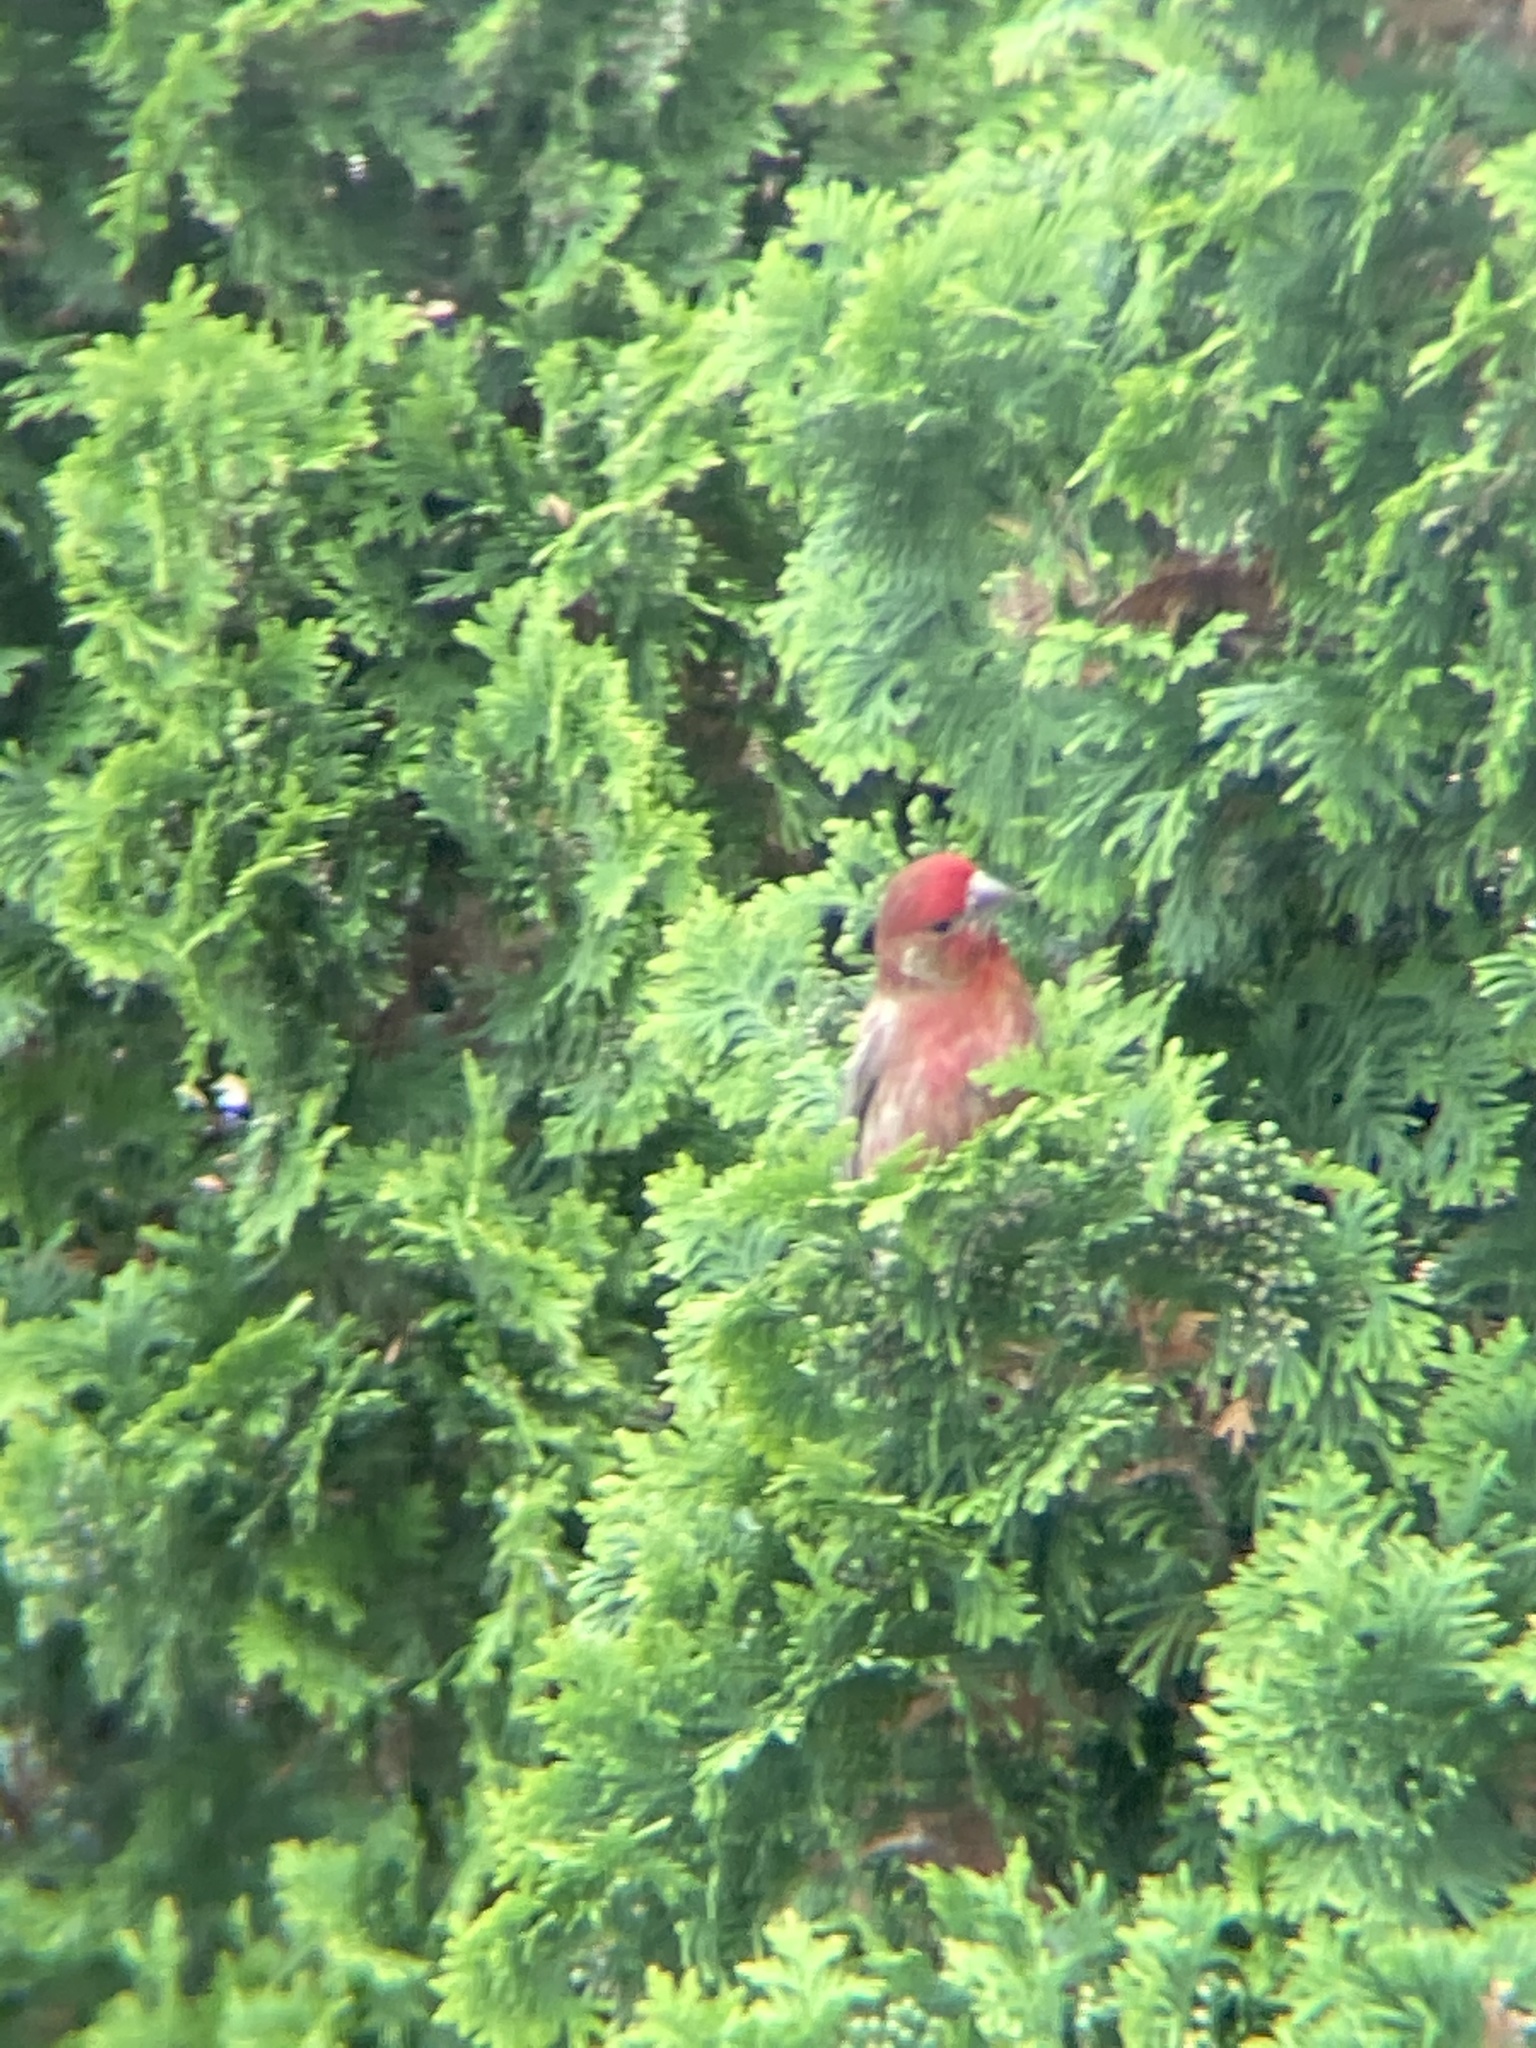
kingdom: Animalia
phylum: Chordata
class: Aves
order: Passeriformes
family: Fringillidae
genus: Haemorhous
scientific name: Haemorhous mexicanus
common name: House finch
